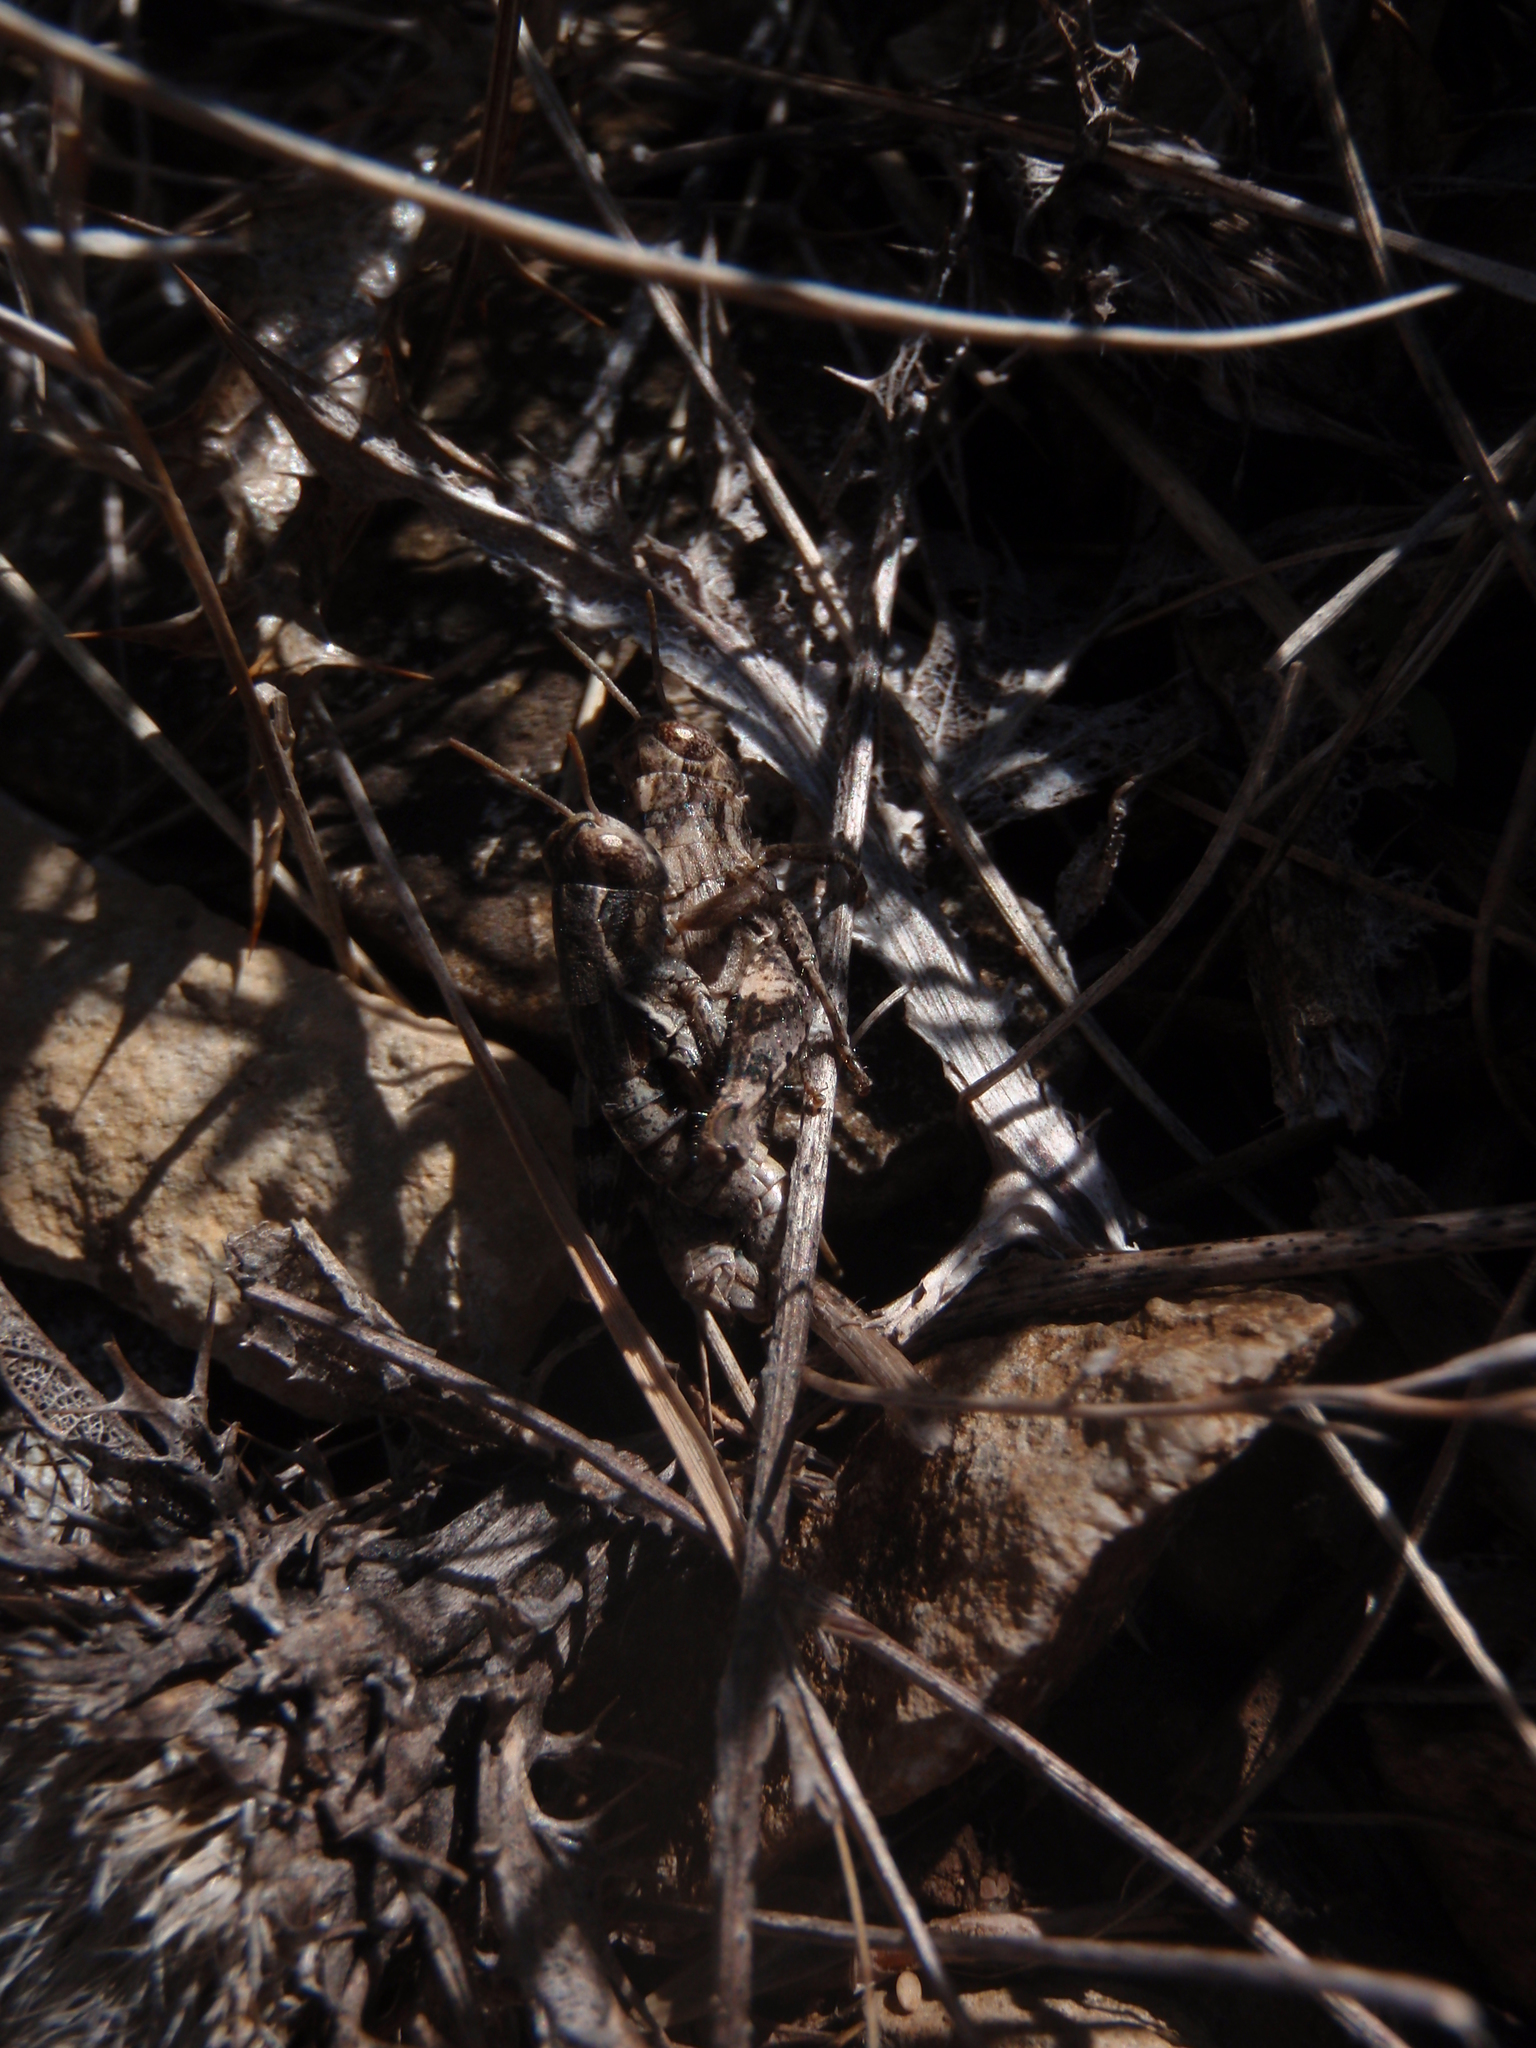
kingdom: Animalia
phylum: Arthropoda
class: Insecta
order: Orthoptera
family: Acrididae
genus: Pezotettix
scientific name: Pezotettix giornae
